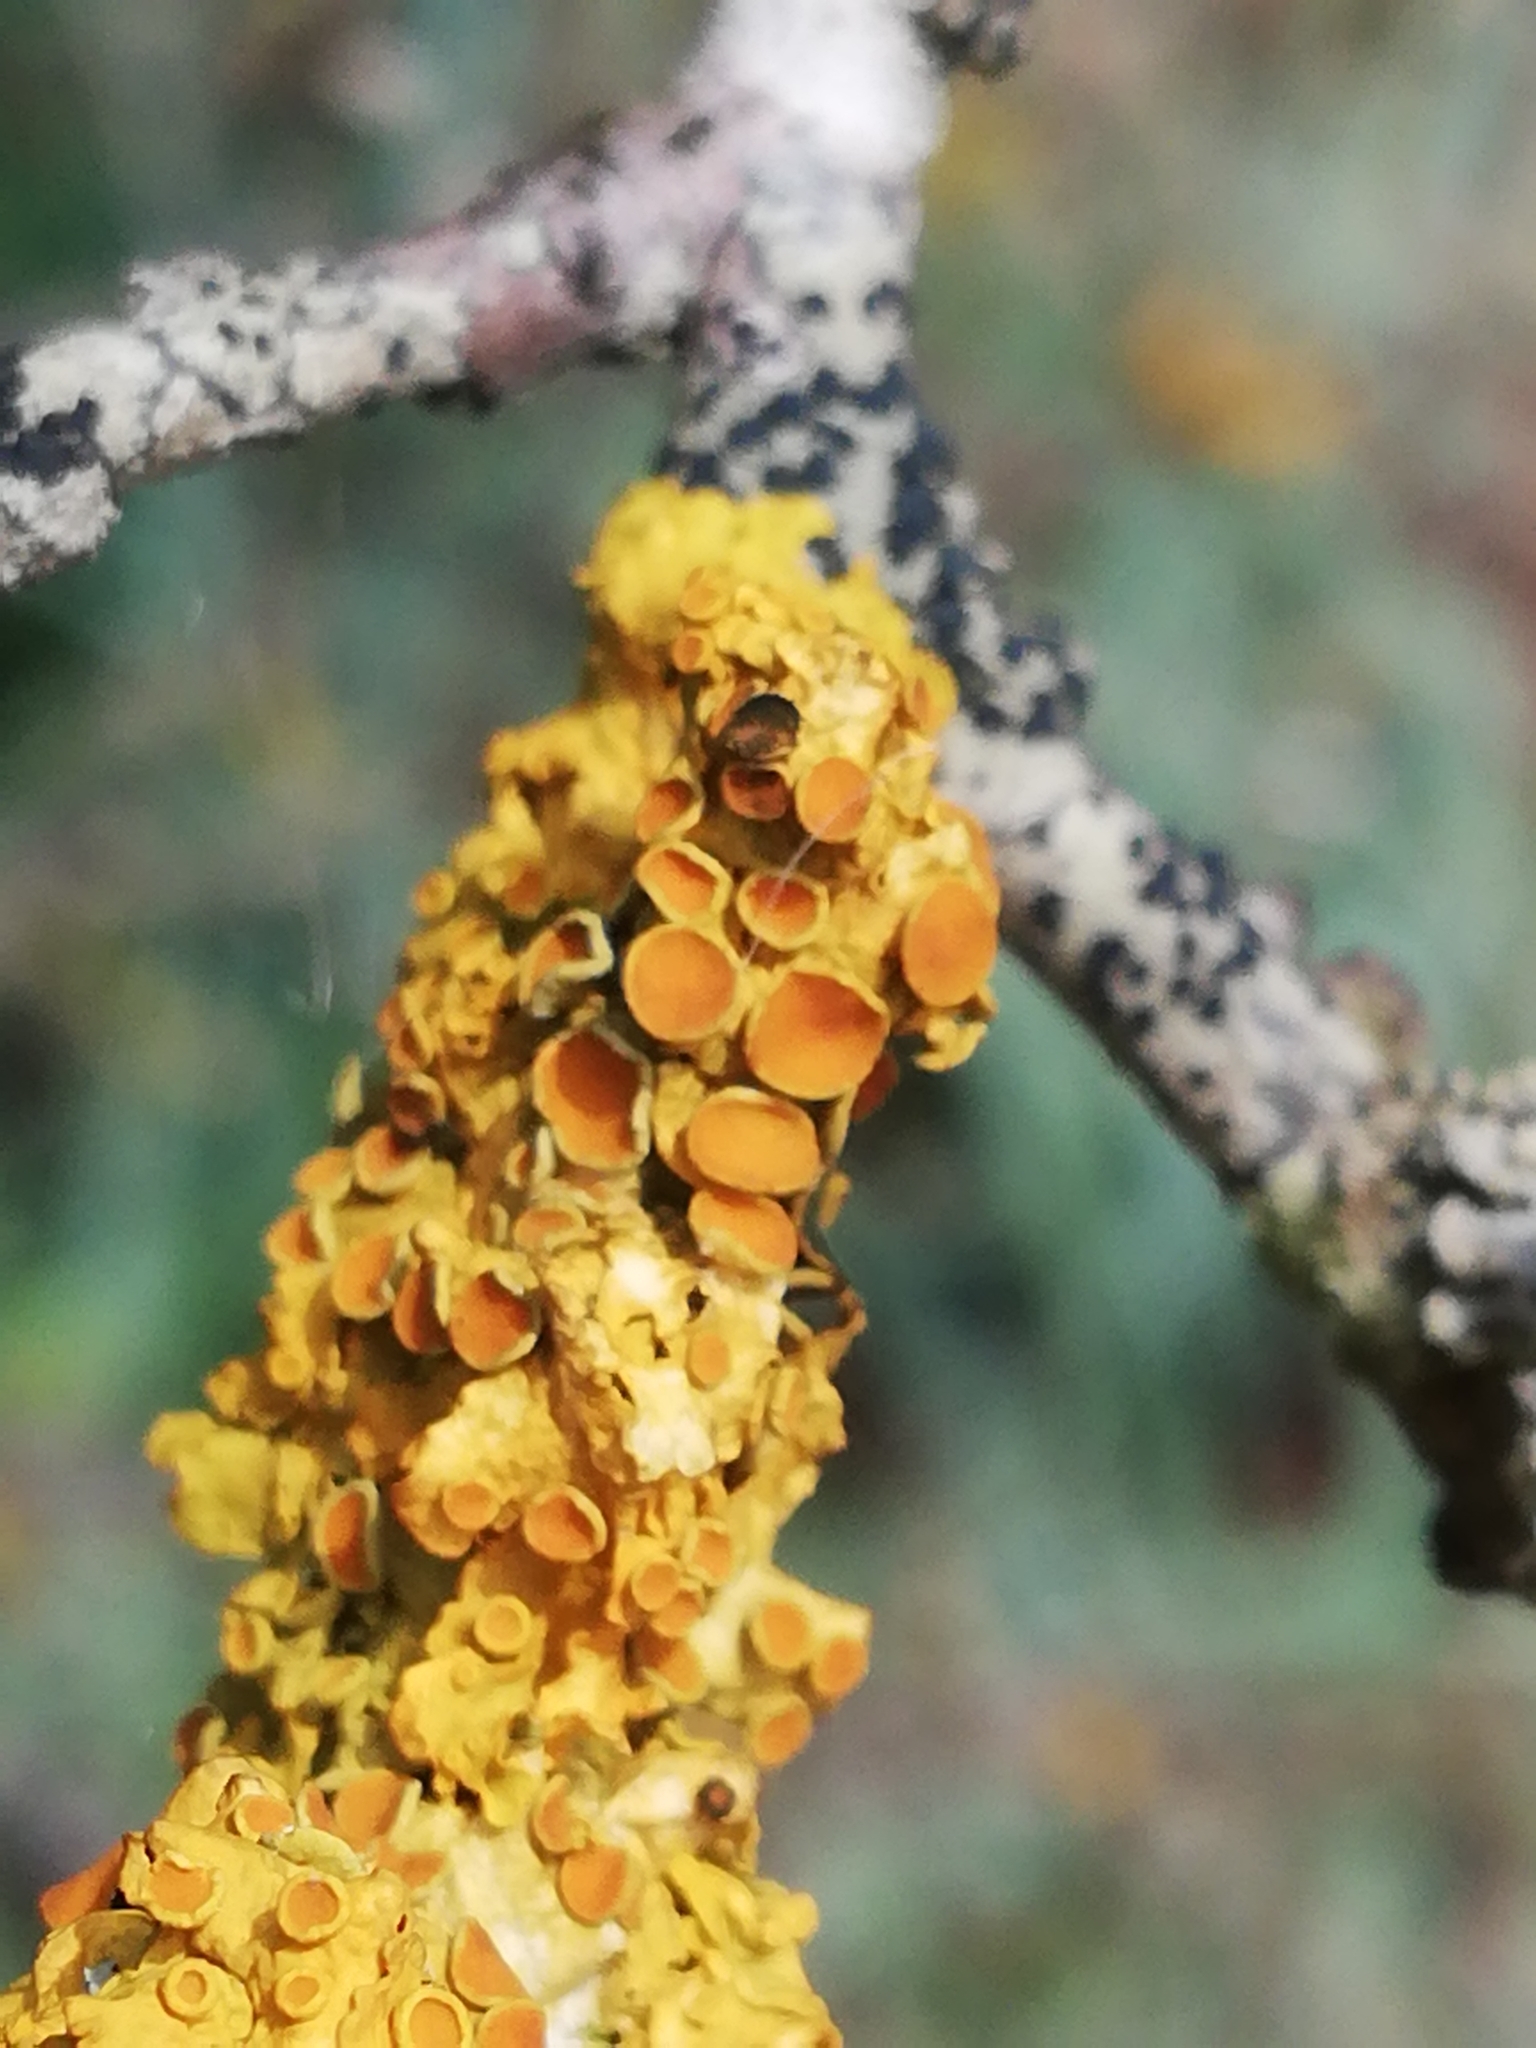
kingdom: Fungi
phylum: Ascomycota
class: Lecanoromycetes
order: Teloschistales
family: Teloschistaceae
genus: Xanthoria
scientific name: Xanthoria parietina
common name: Common orange lichen
